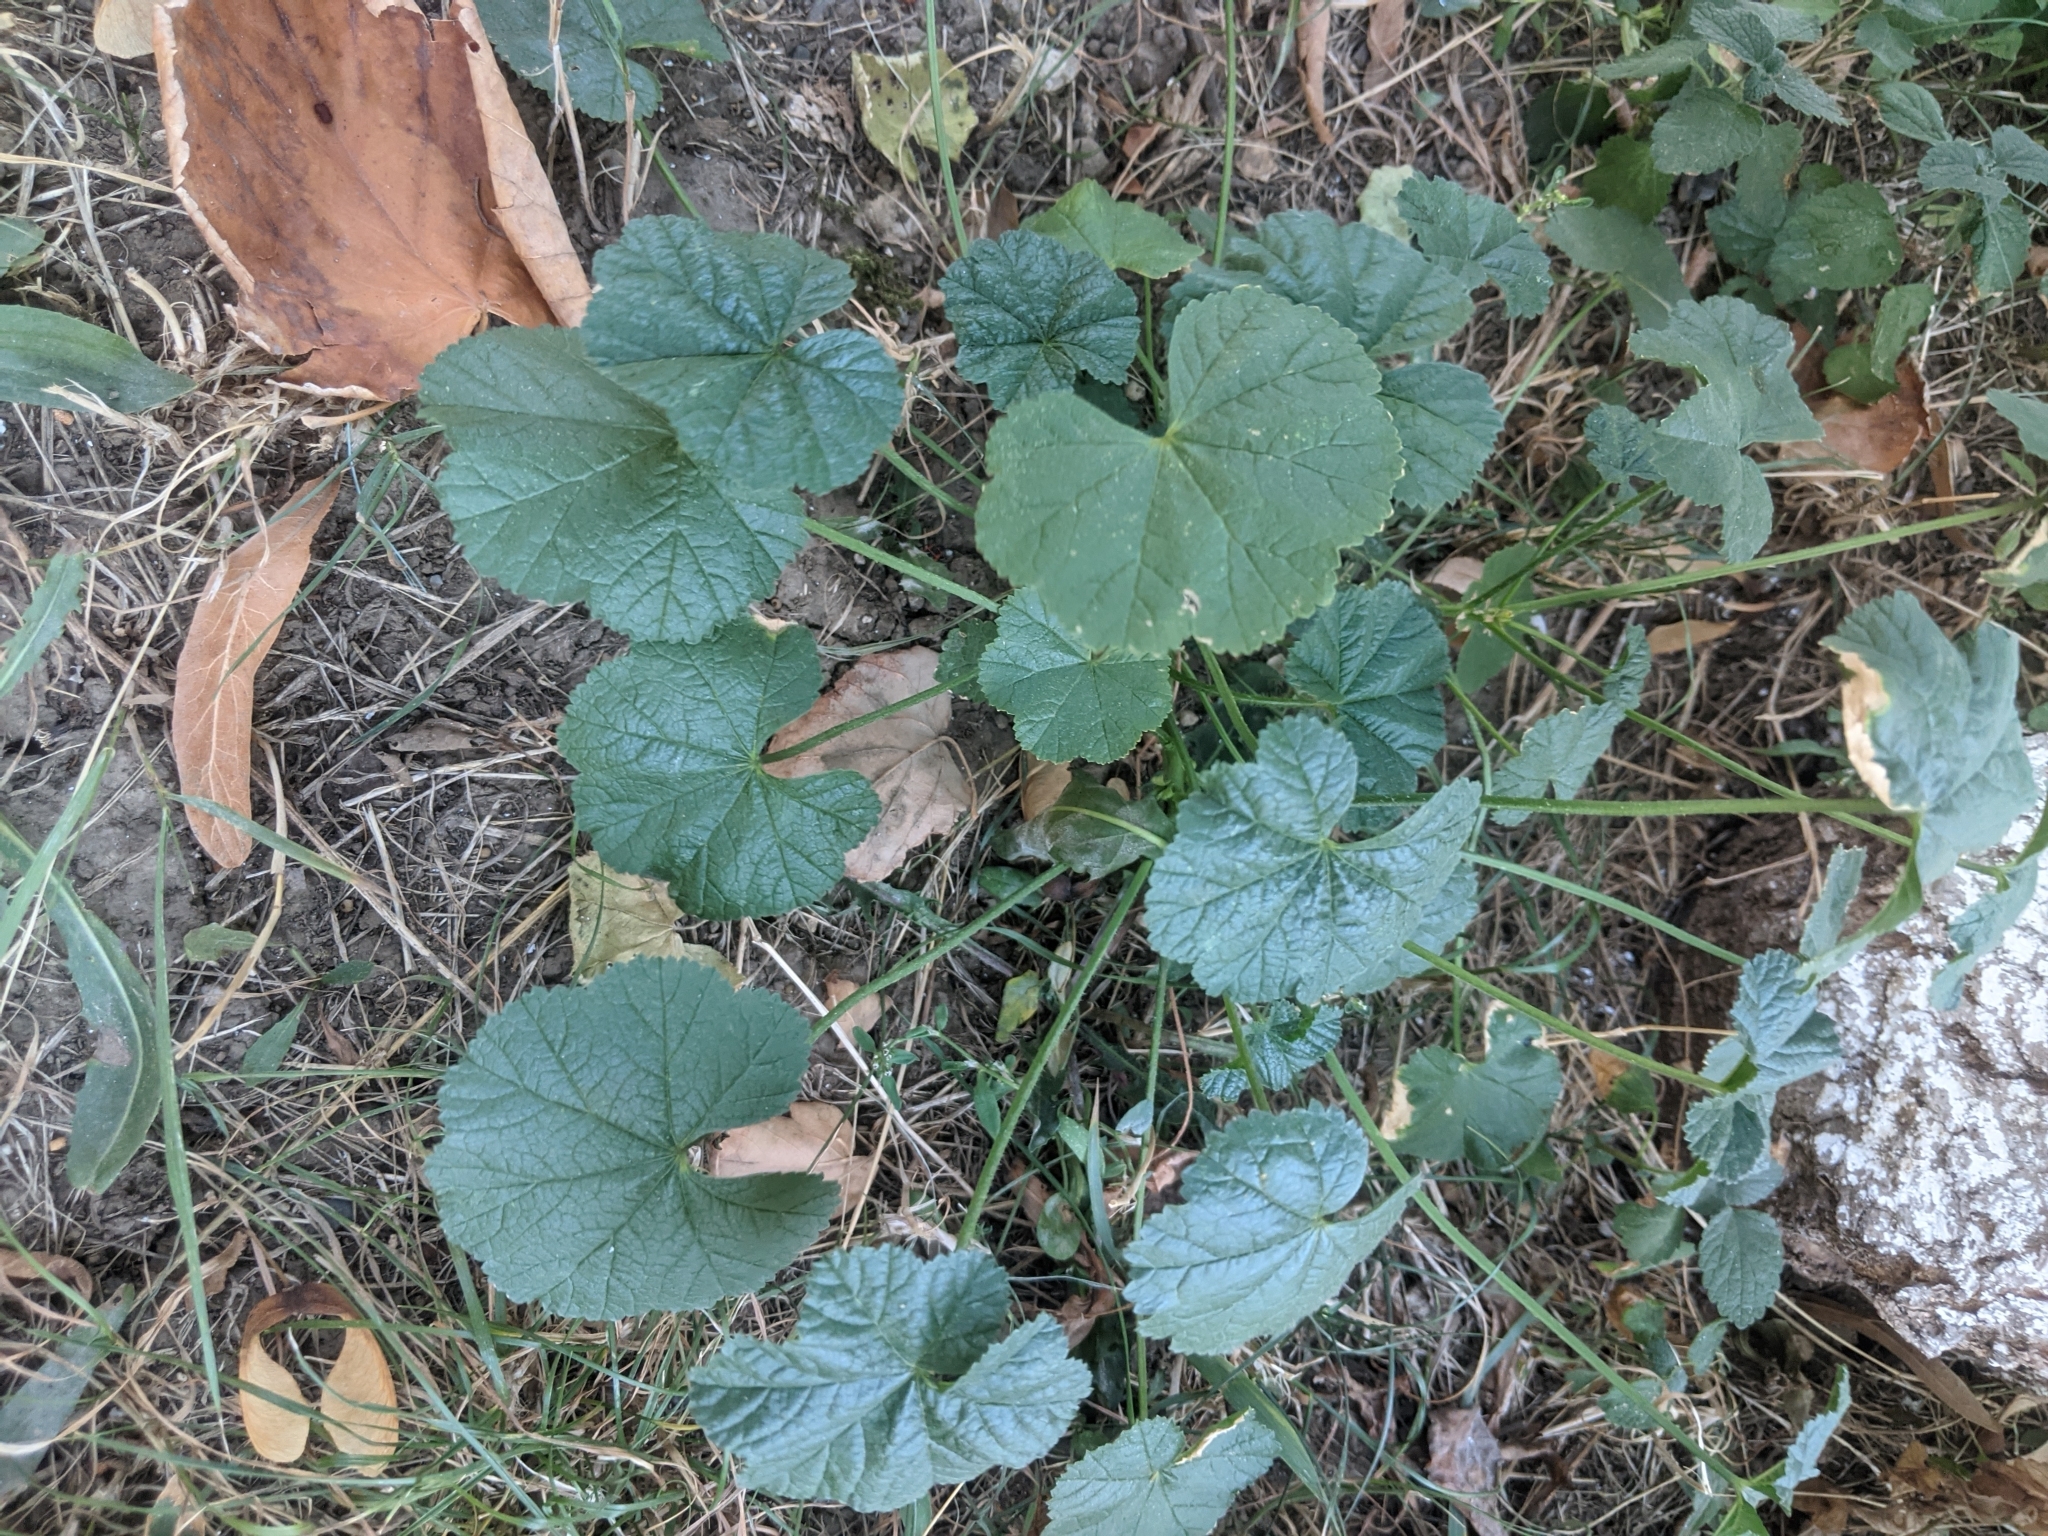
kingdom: Plantae
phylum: Tracheophyta
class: Magnoliopsida
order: Malvales
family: Malvaceae
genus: Malva
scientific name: Malva pusilla
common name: Small mallow
